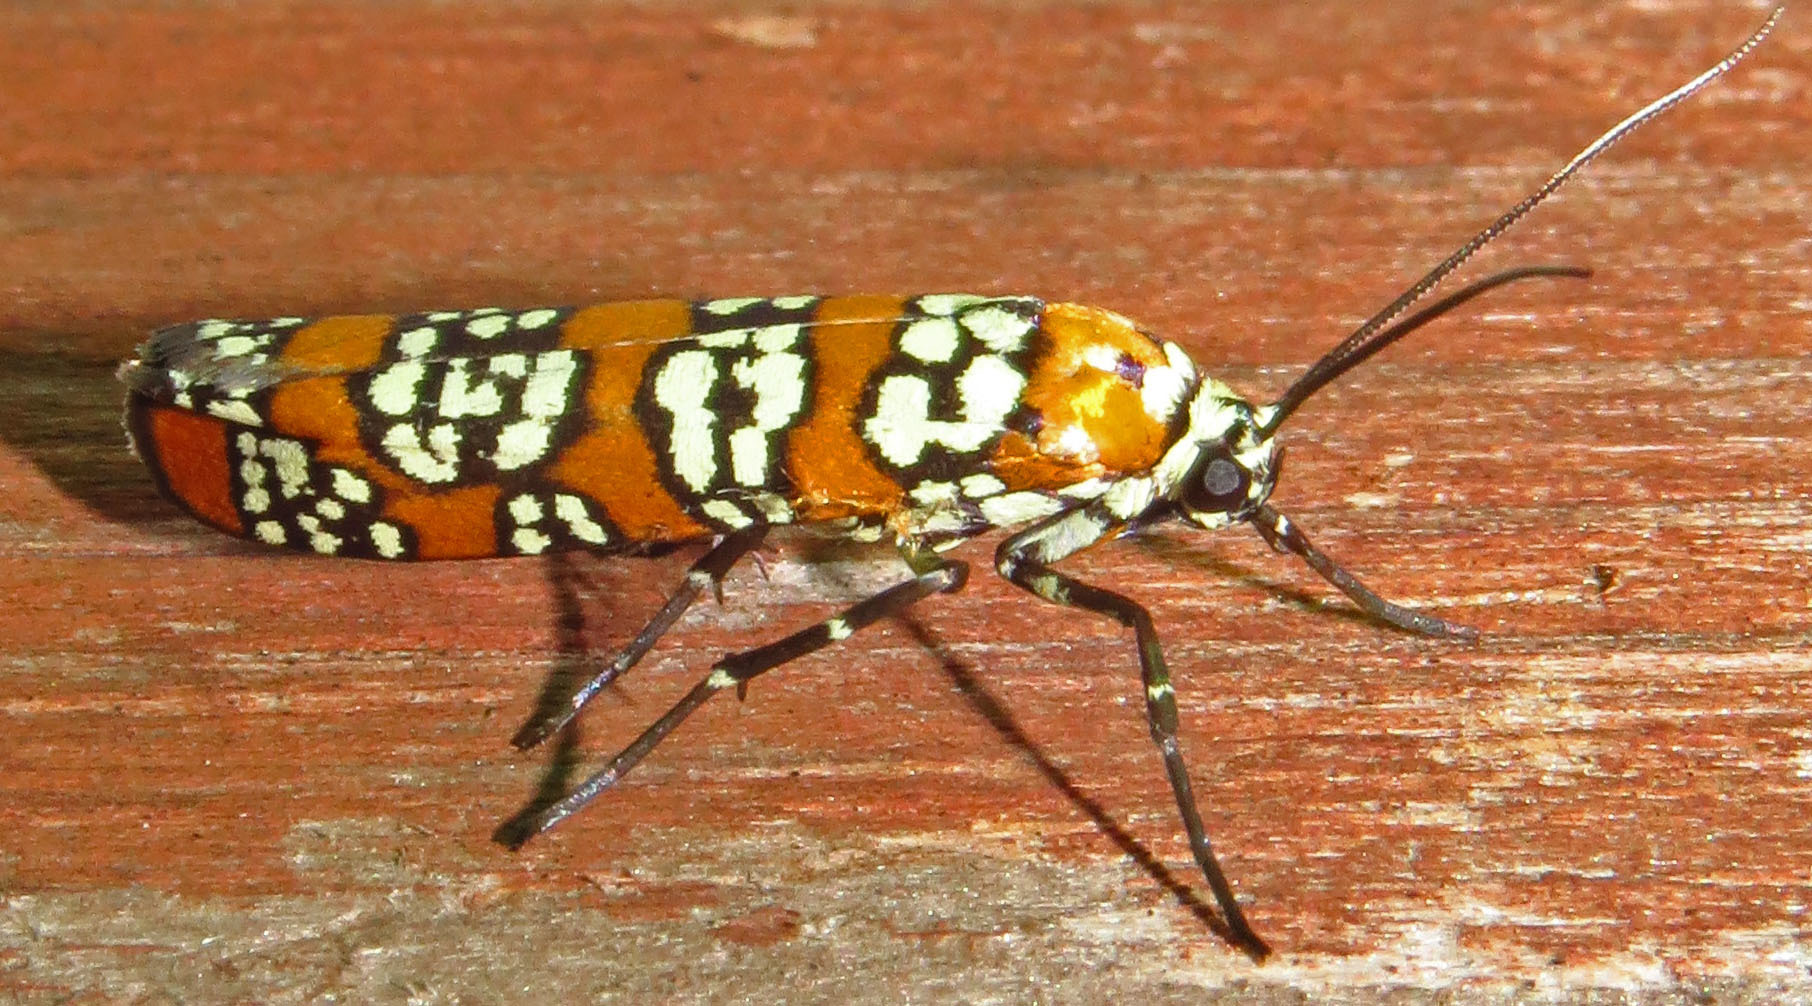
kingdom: Animalia
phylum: Arthropoda
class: Insecta
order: Lepidoptera
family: Attevidae
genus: Atteva
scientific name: Atteva punctella
